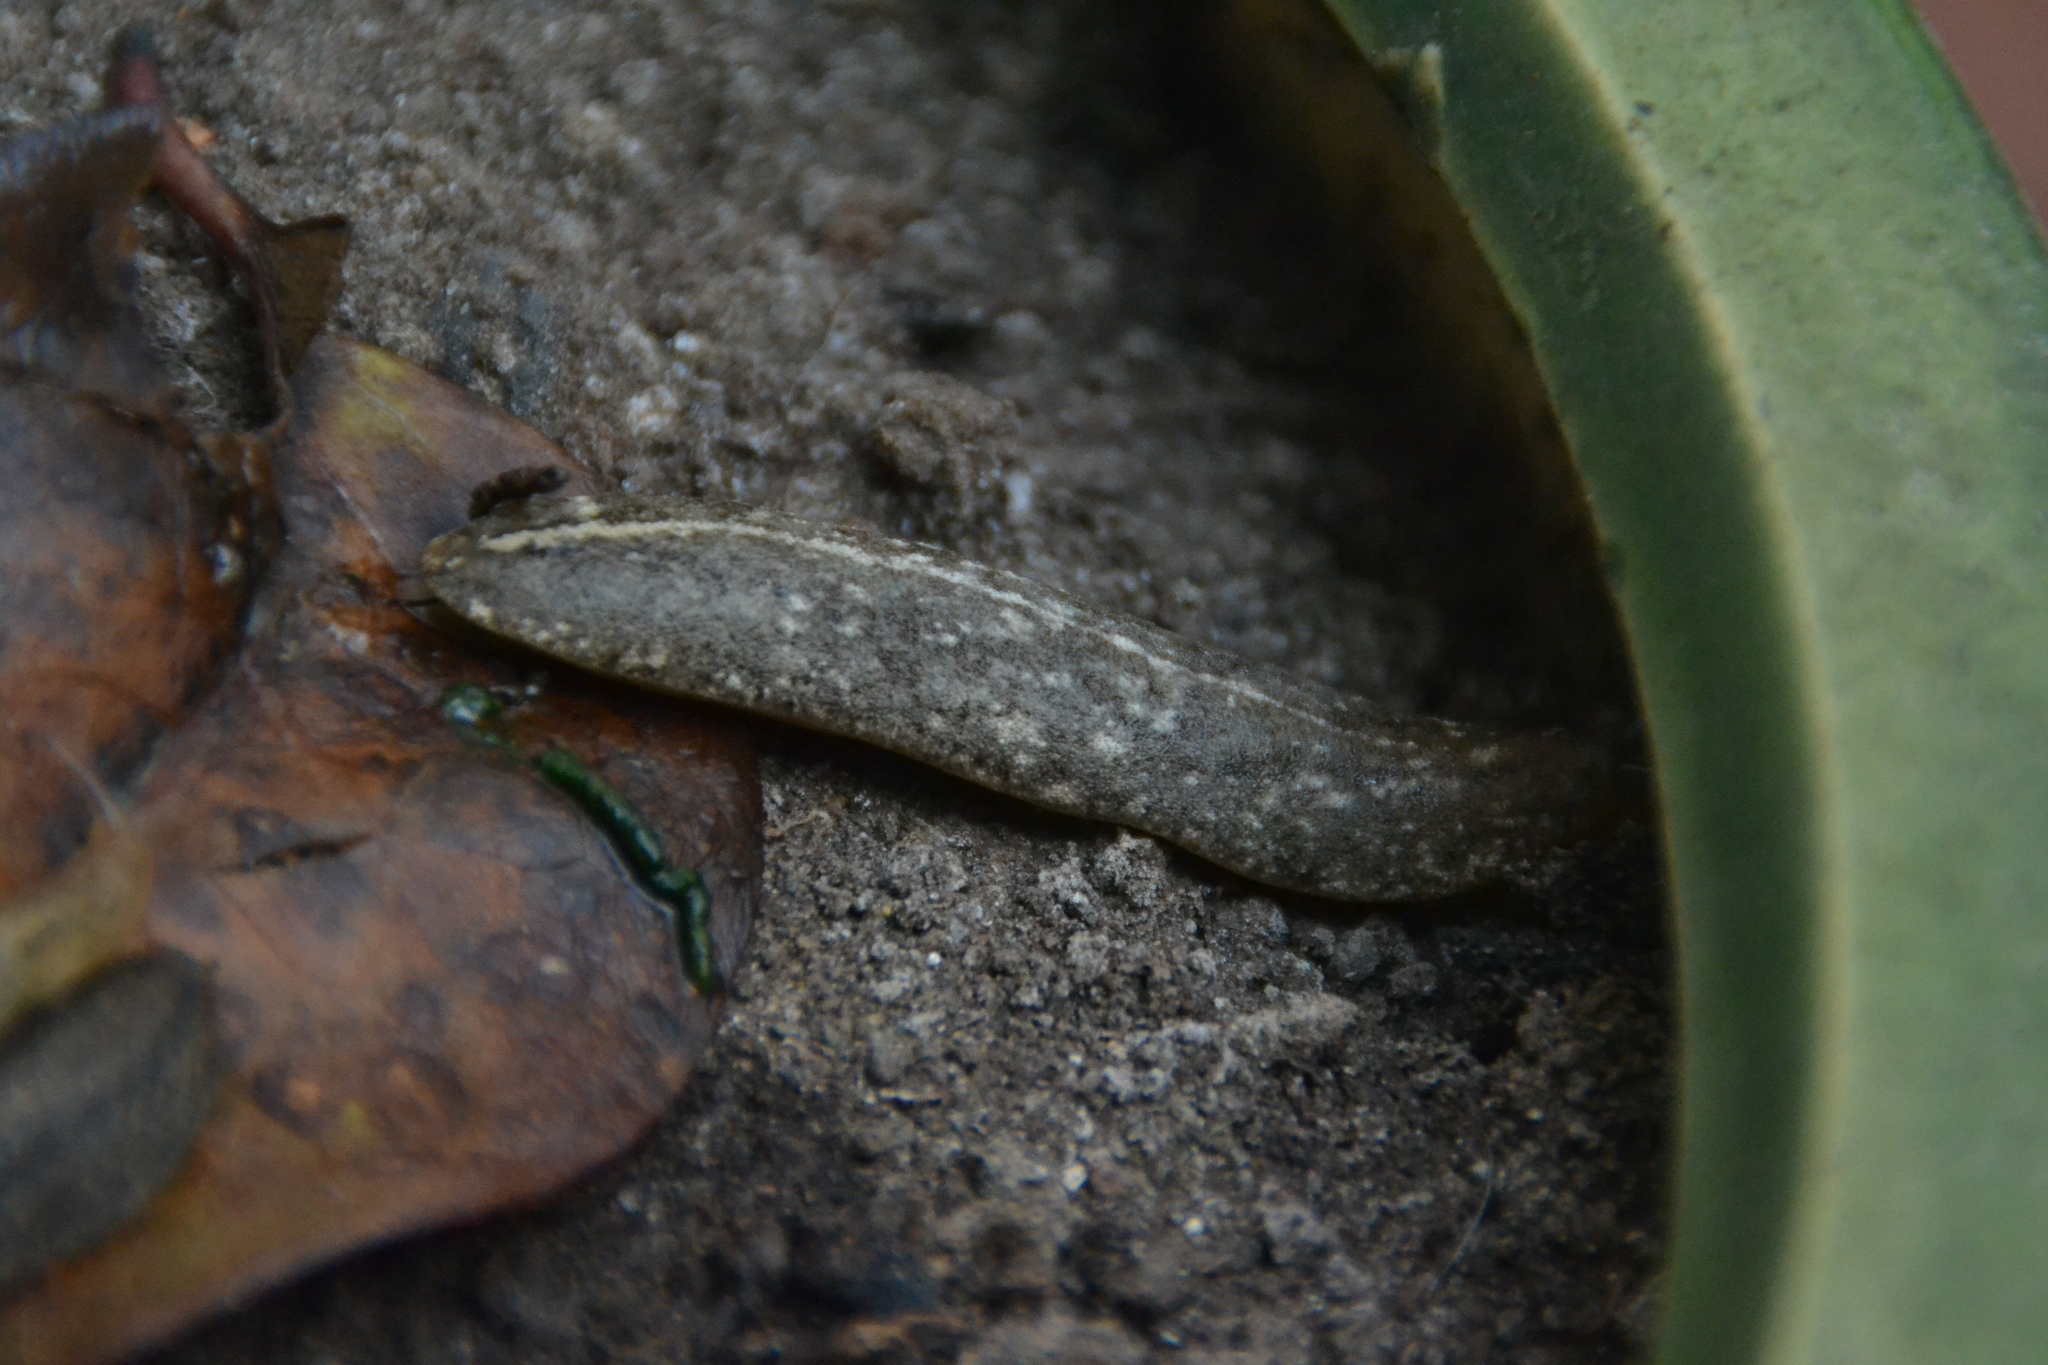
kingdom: Animalia
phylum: Mollusca
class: Gastropoda
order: Systellommatophora
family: Veronicellidae
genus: Heterovaginina
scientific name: Heterovaginina limayana
